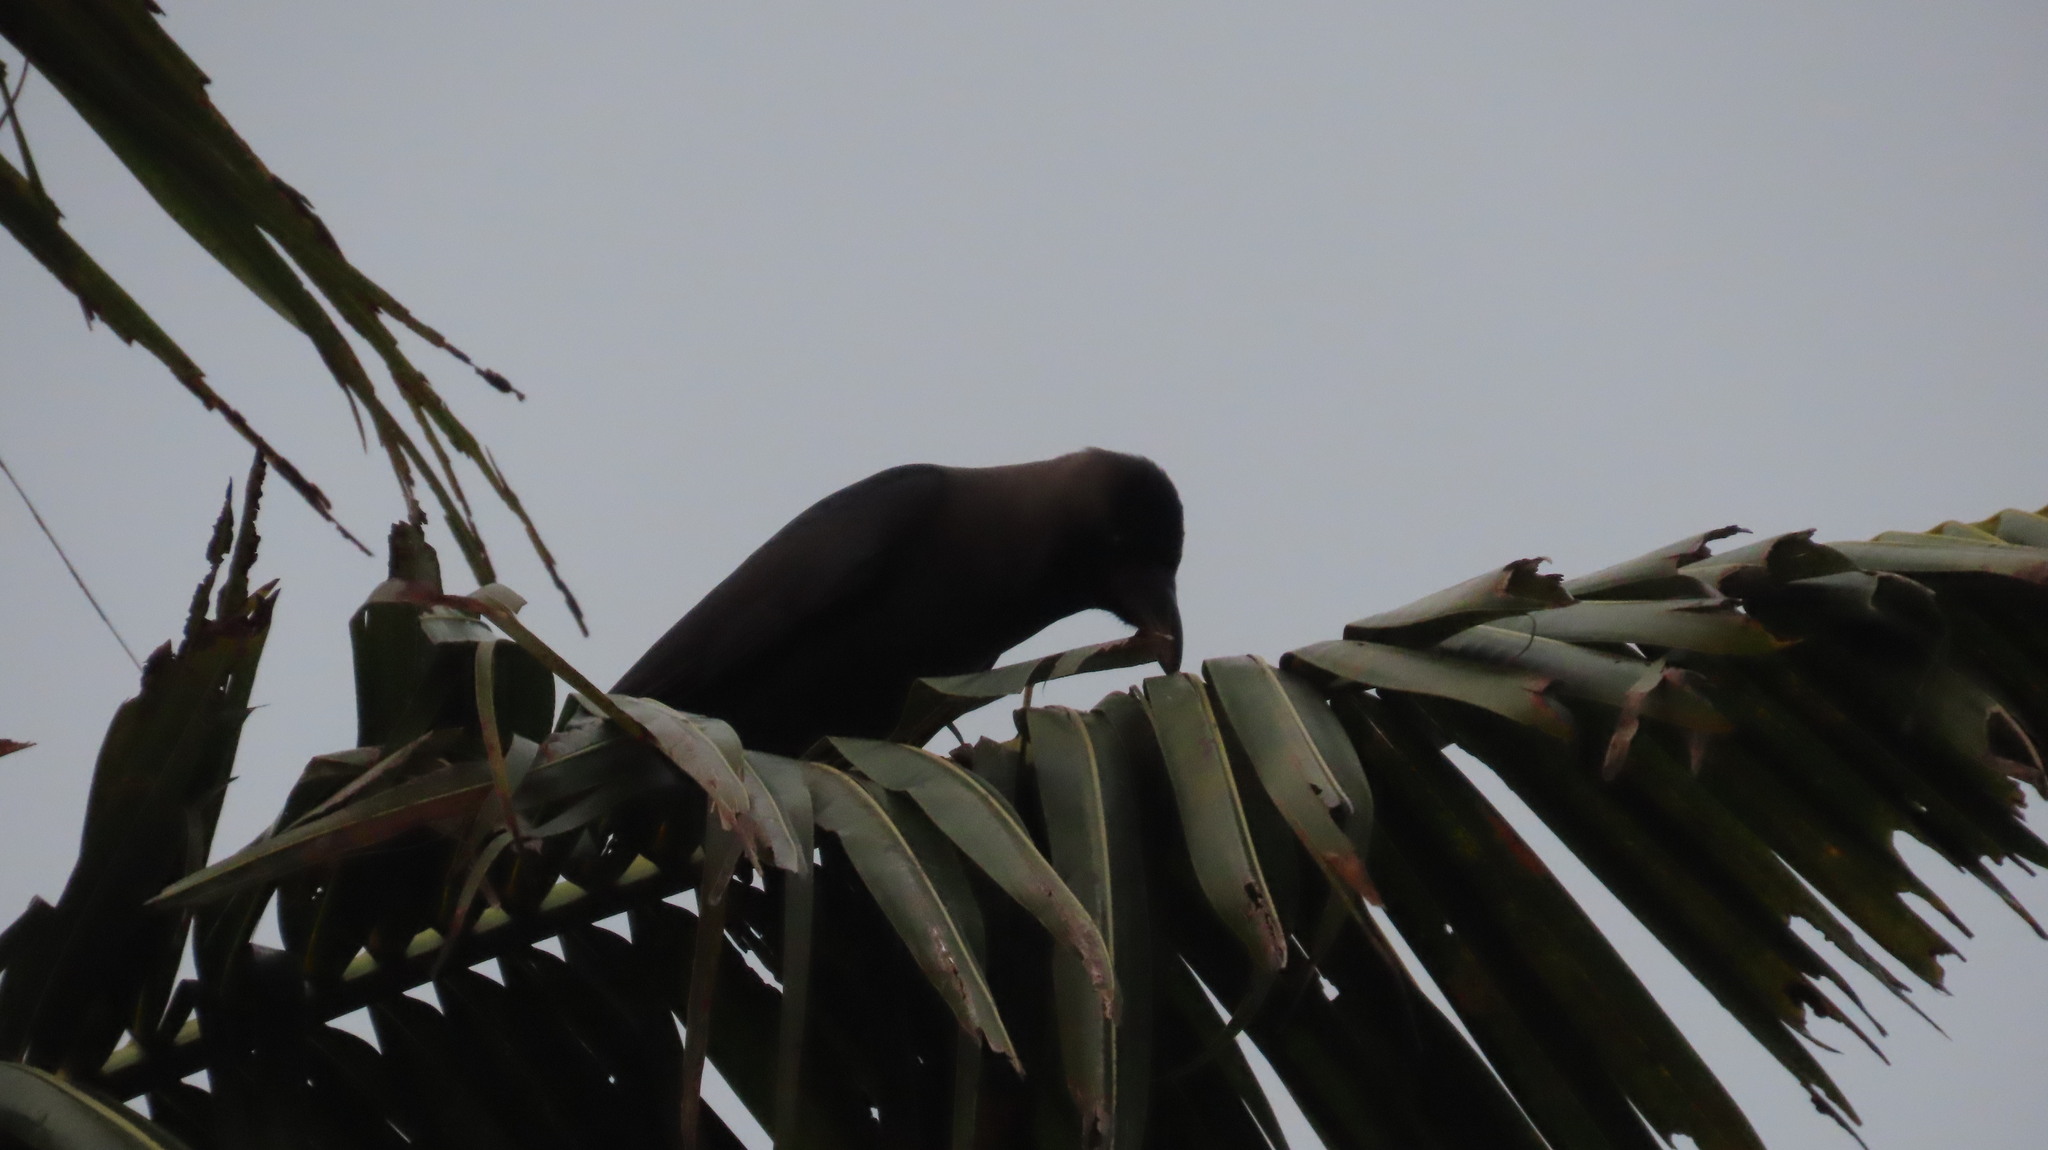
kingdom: Animalia
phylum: Chordata
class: Aves
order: Passeriformes
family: Corvidae
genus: Corvus
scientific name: Corvus splendens
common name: House crow
